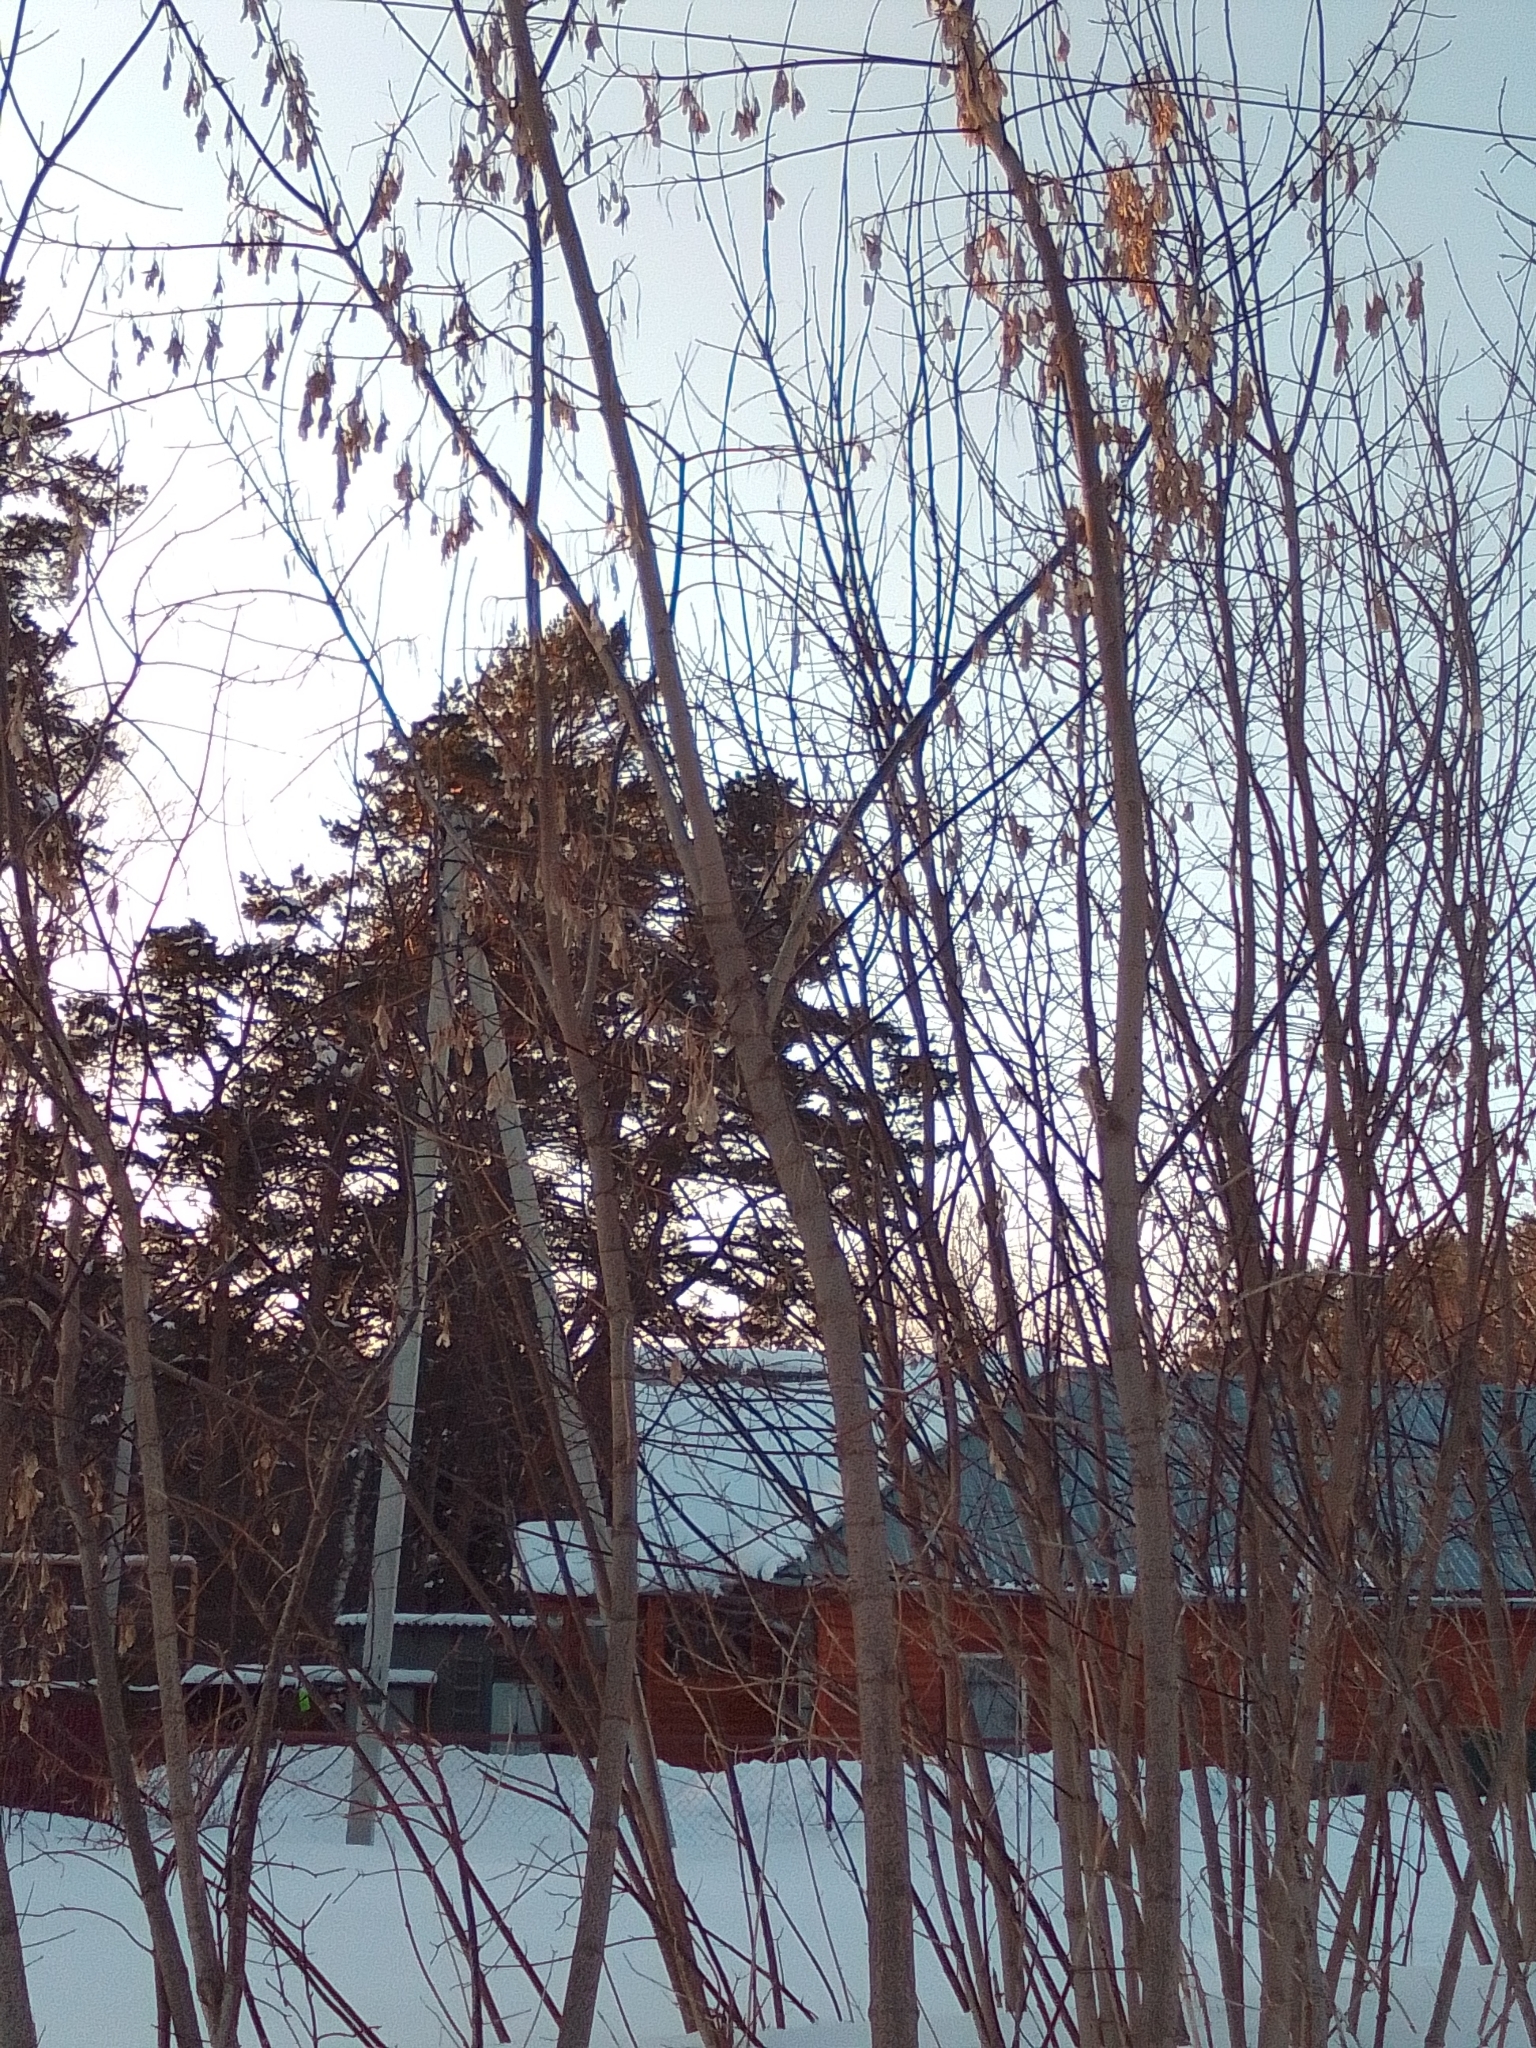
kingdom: Plantae
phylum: Tracheophyta
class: Magnoliopsida
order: Sapindales
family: Sapindaceae
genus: Acer
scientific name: Acer negundo
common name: Ashleaf maple
